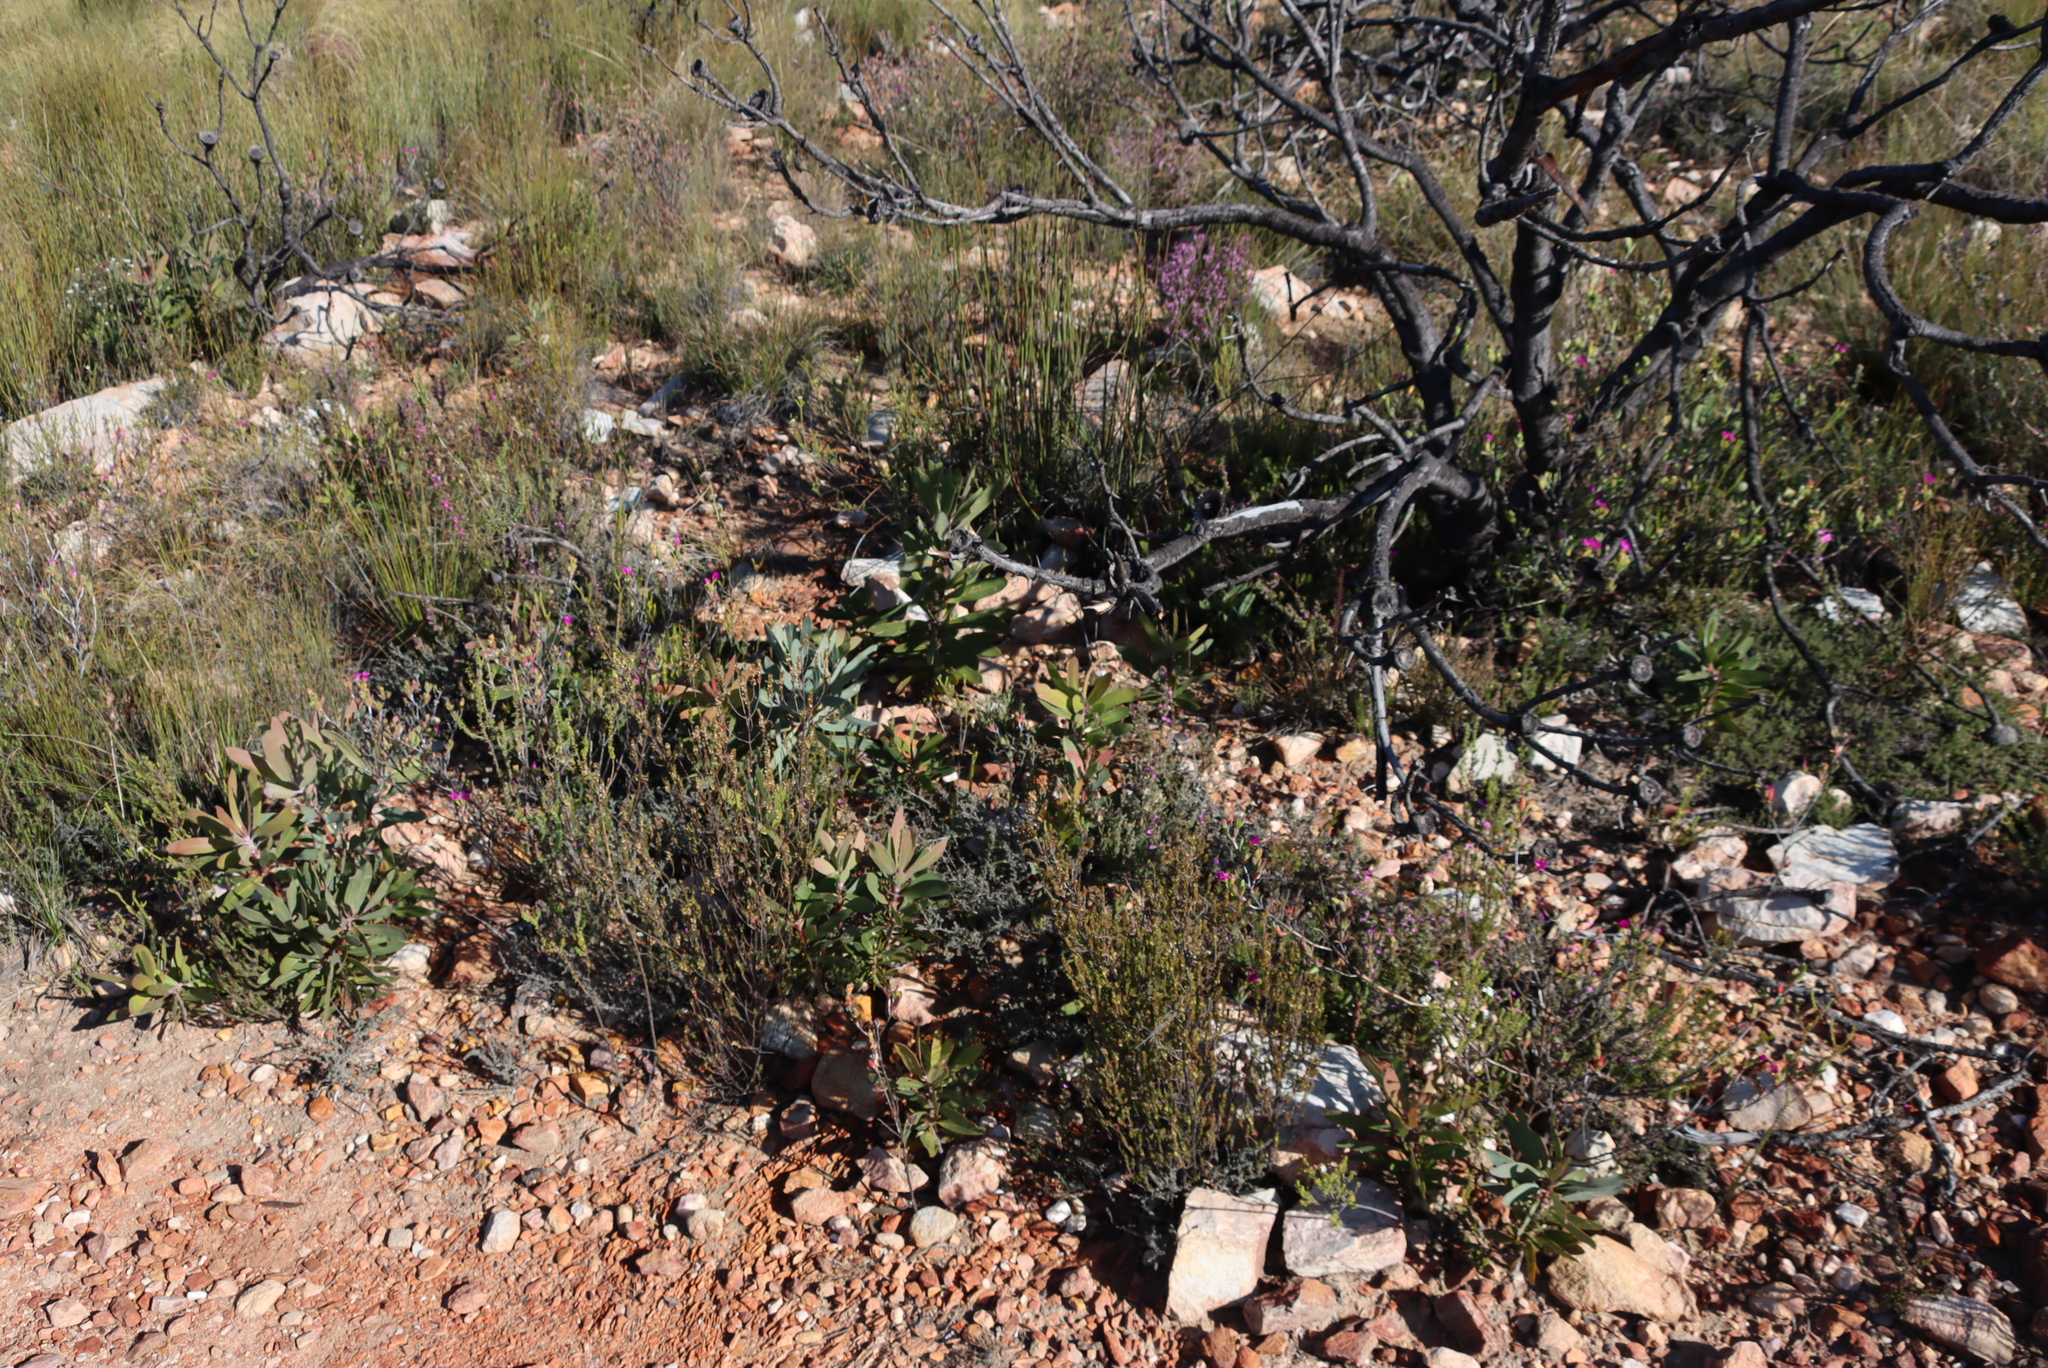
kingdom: Plantae
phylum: Tracheophyta
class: Magnoliopsida
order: Proteales
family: Proteaceae
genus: Protea
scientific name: Protea lorifolia
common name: Strap-leaved protea
